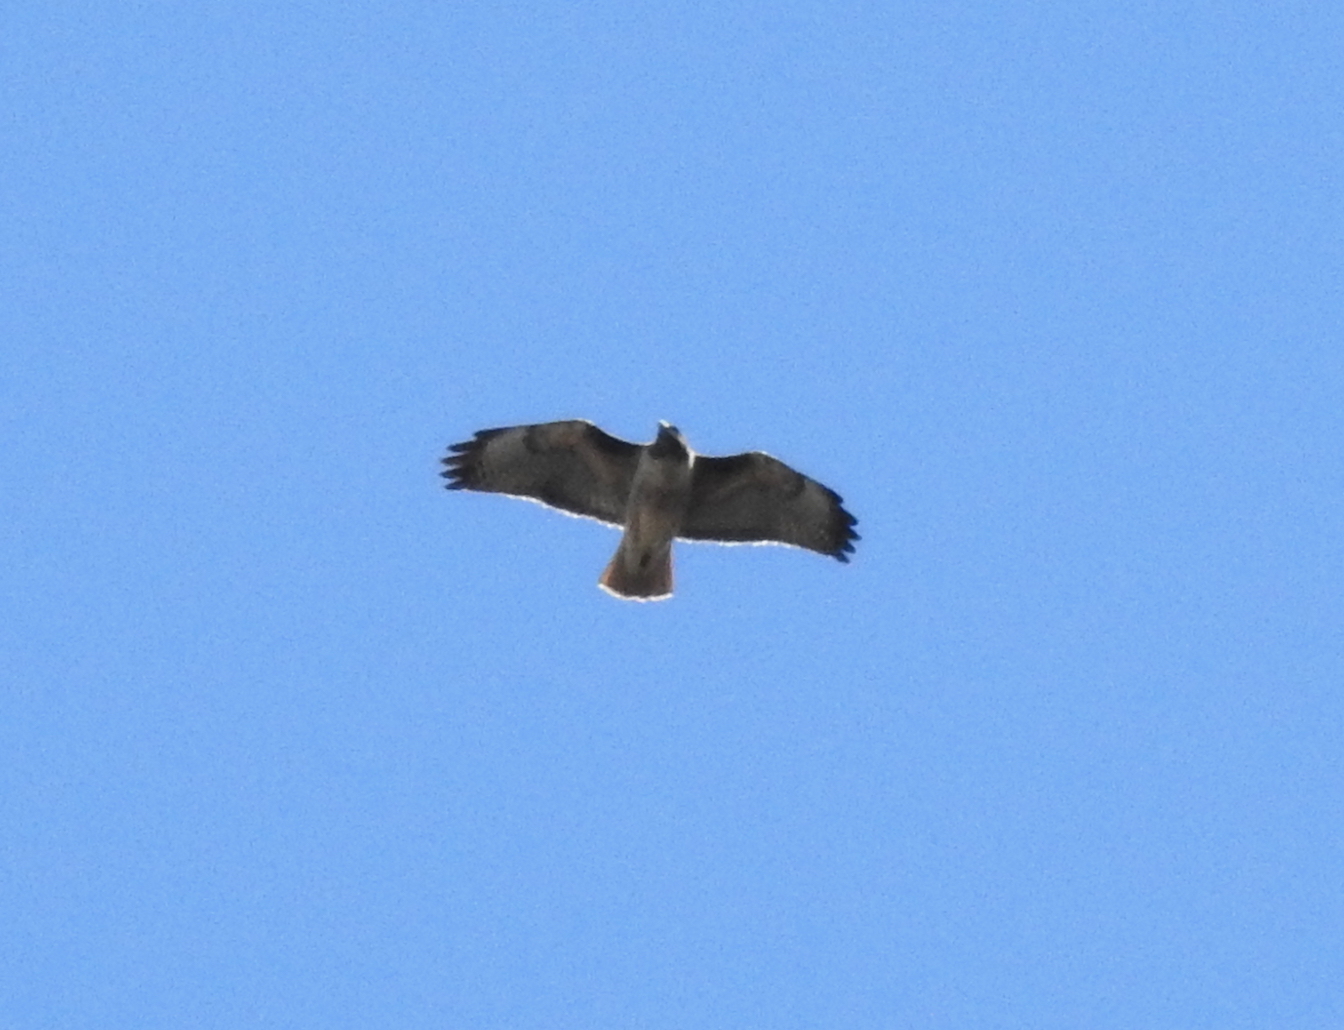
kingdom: Animalia
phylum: Chordata
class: Aves
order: Accipitriformes
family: Accipitridae
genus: Buteo
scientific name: Buteo jamaicensis
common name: Red-tailed hawk
